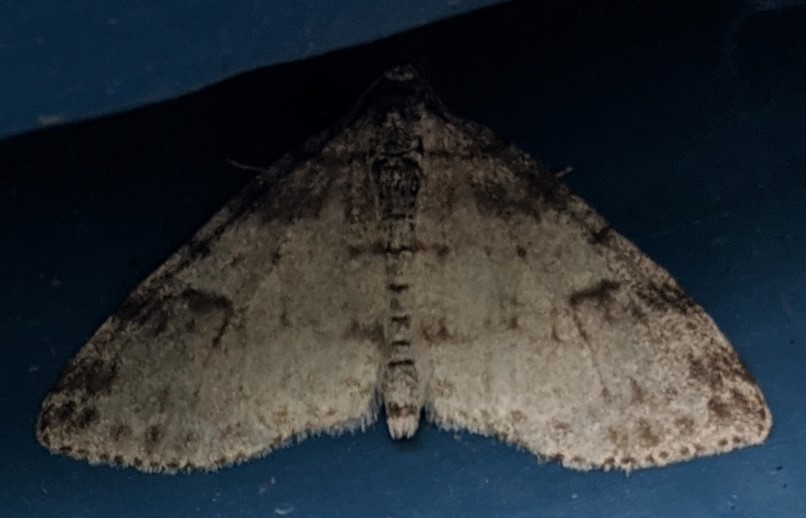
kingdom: Animalia
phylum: Arthropoda
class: Insecta
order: Lepidoptera
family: Geometridae
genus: Lobophora
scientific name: Lobophora nivigerata
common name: Powdered bigwing
